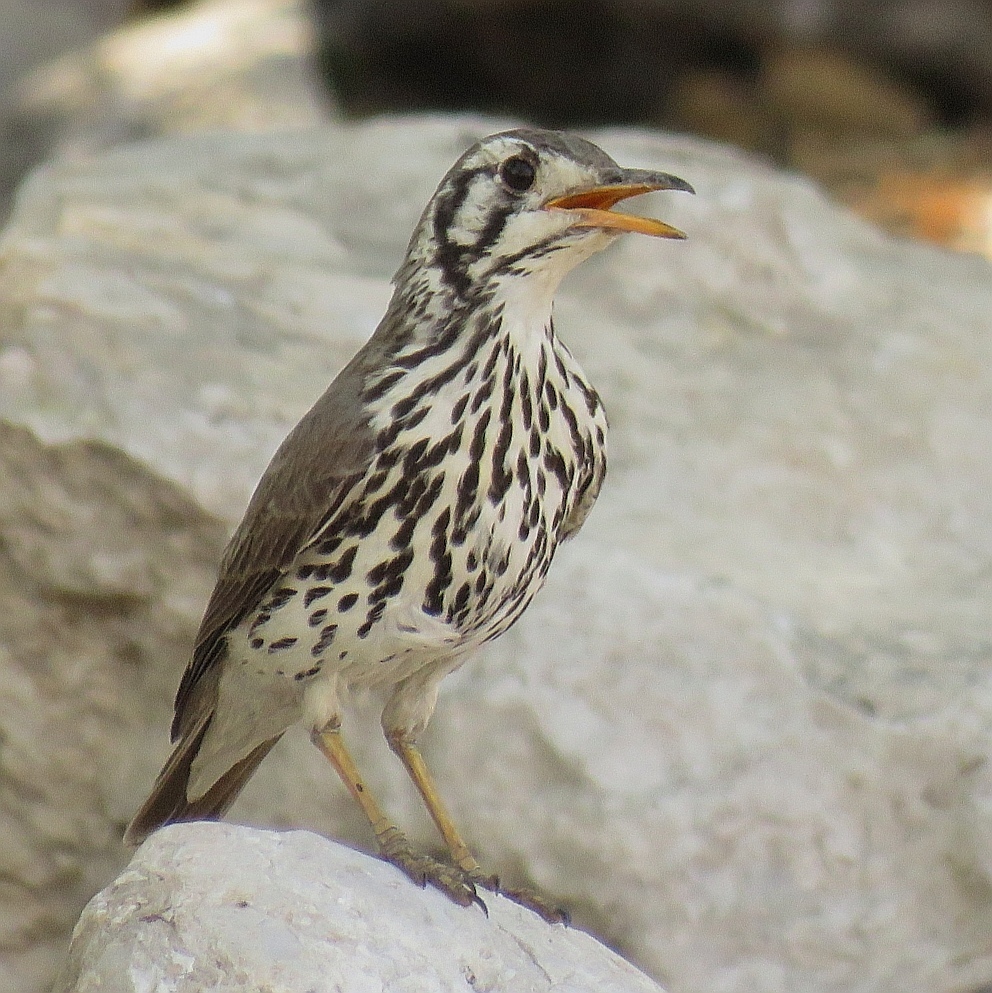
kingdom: Animalia
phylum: Chordata
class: Aves
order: Passeriformes
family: Turdidae
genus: Psophocichla
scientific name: Psophocichla litsitsirupa
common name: Groundscraper thrush
